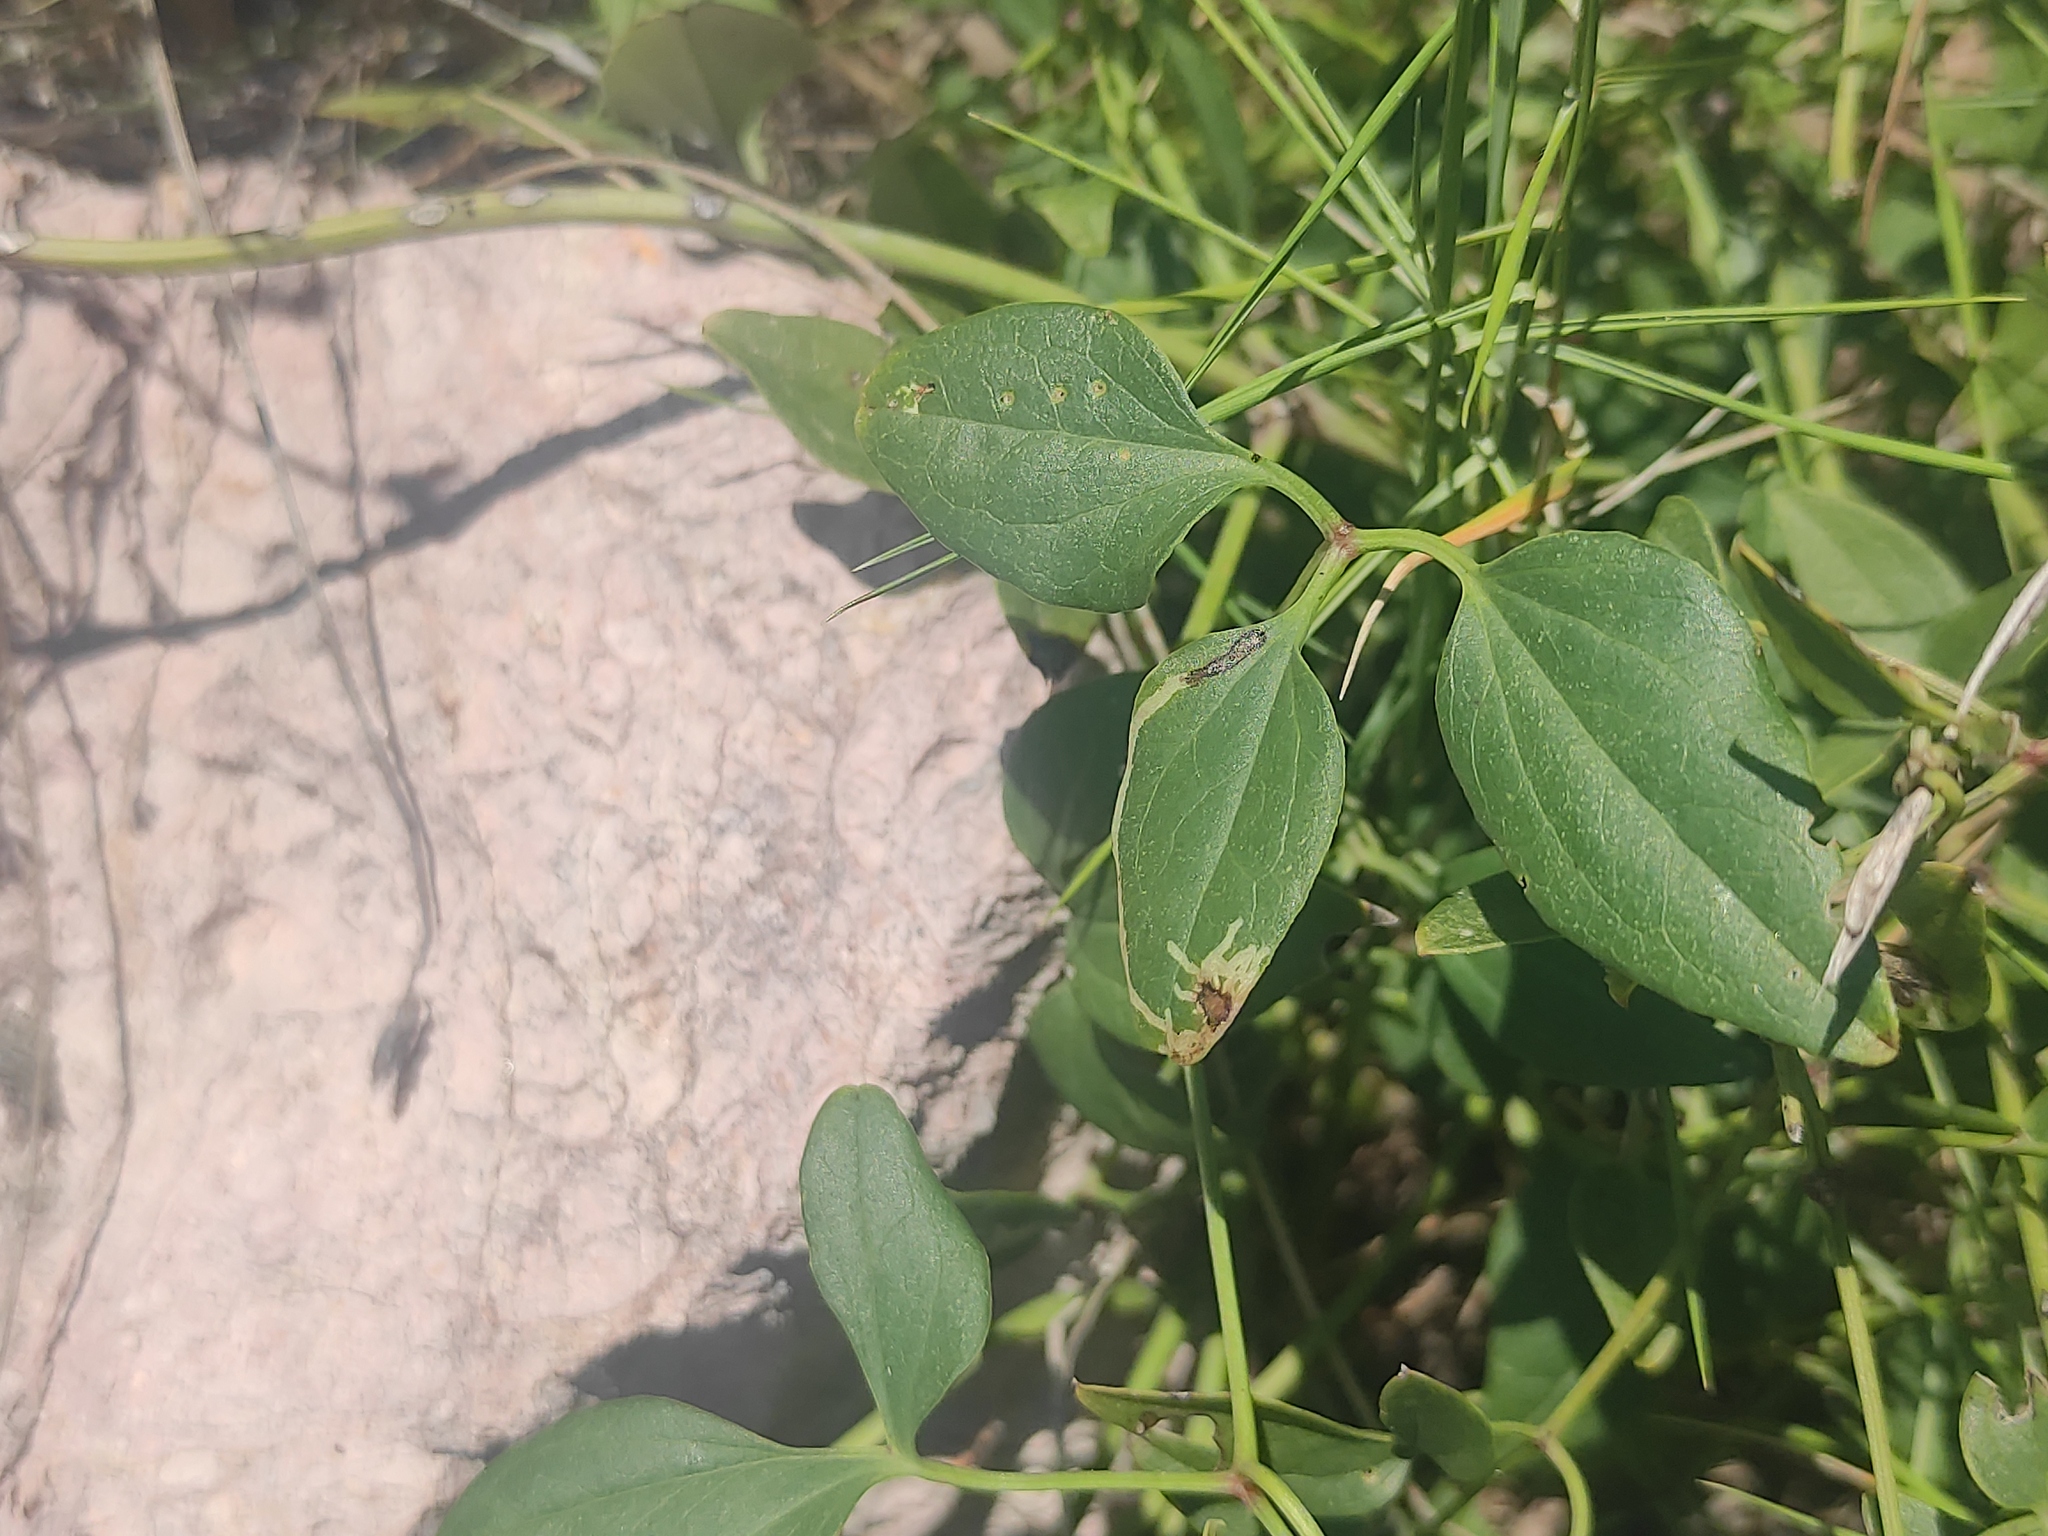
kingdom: Plantae
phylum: Tracheophyta
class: Magnoliopsida
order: Ranunculales
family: Ranunculaceae
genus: Clematis
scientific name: Clematis flammula
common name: Virgin's-bower
